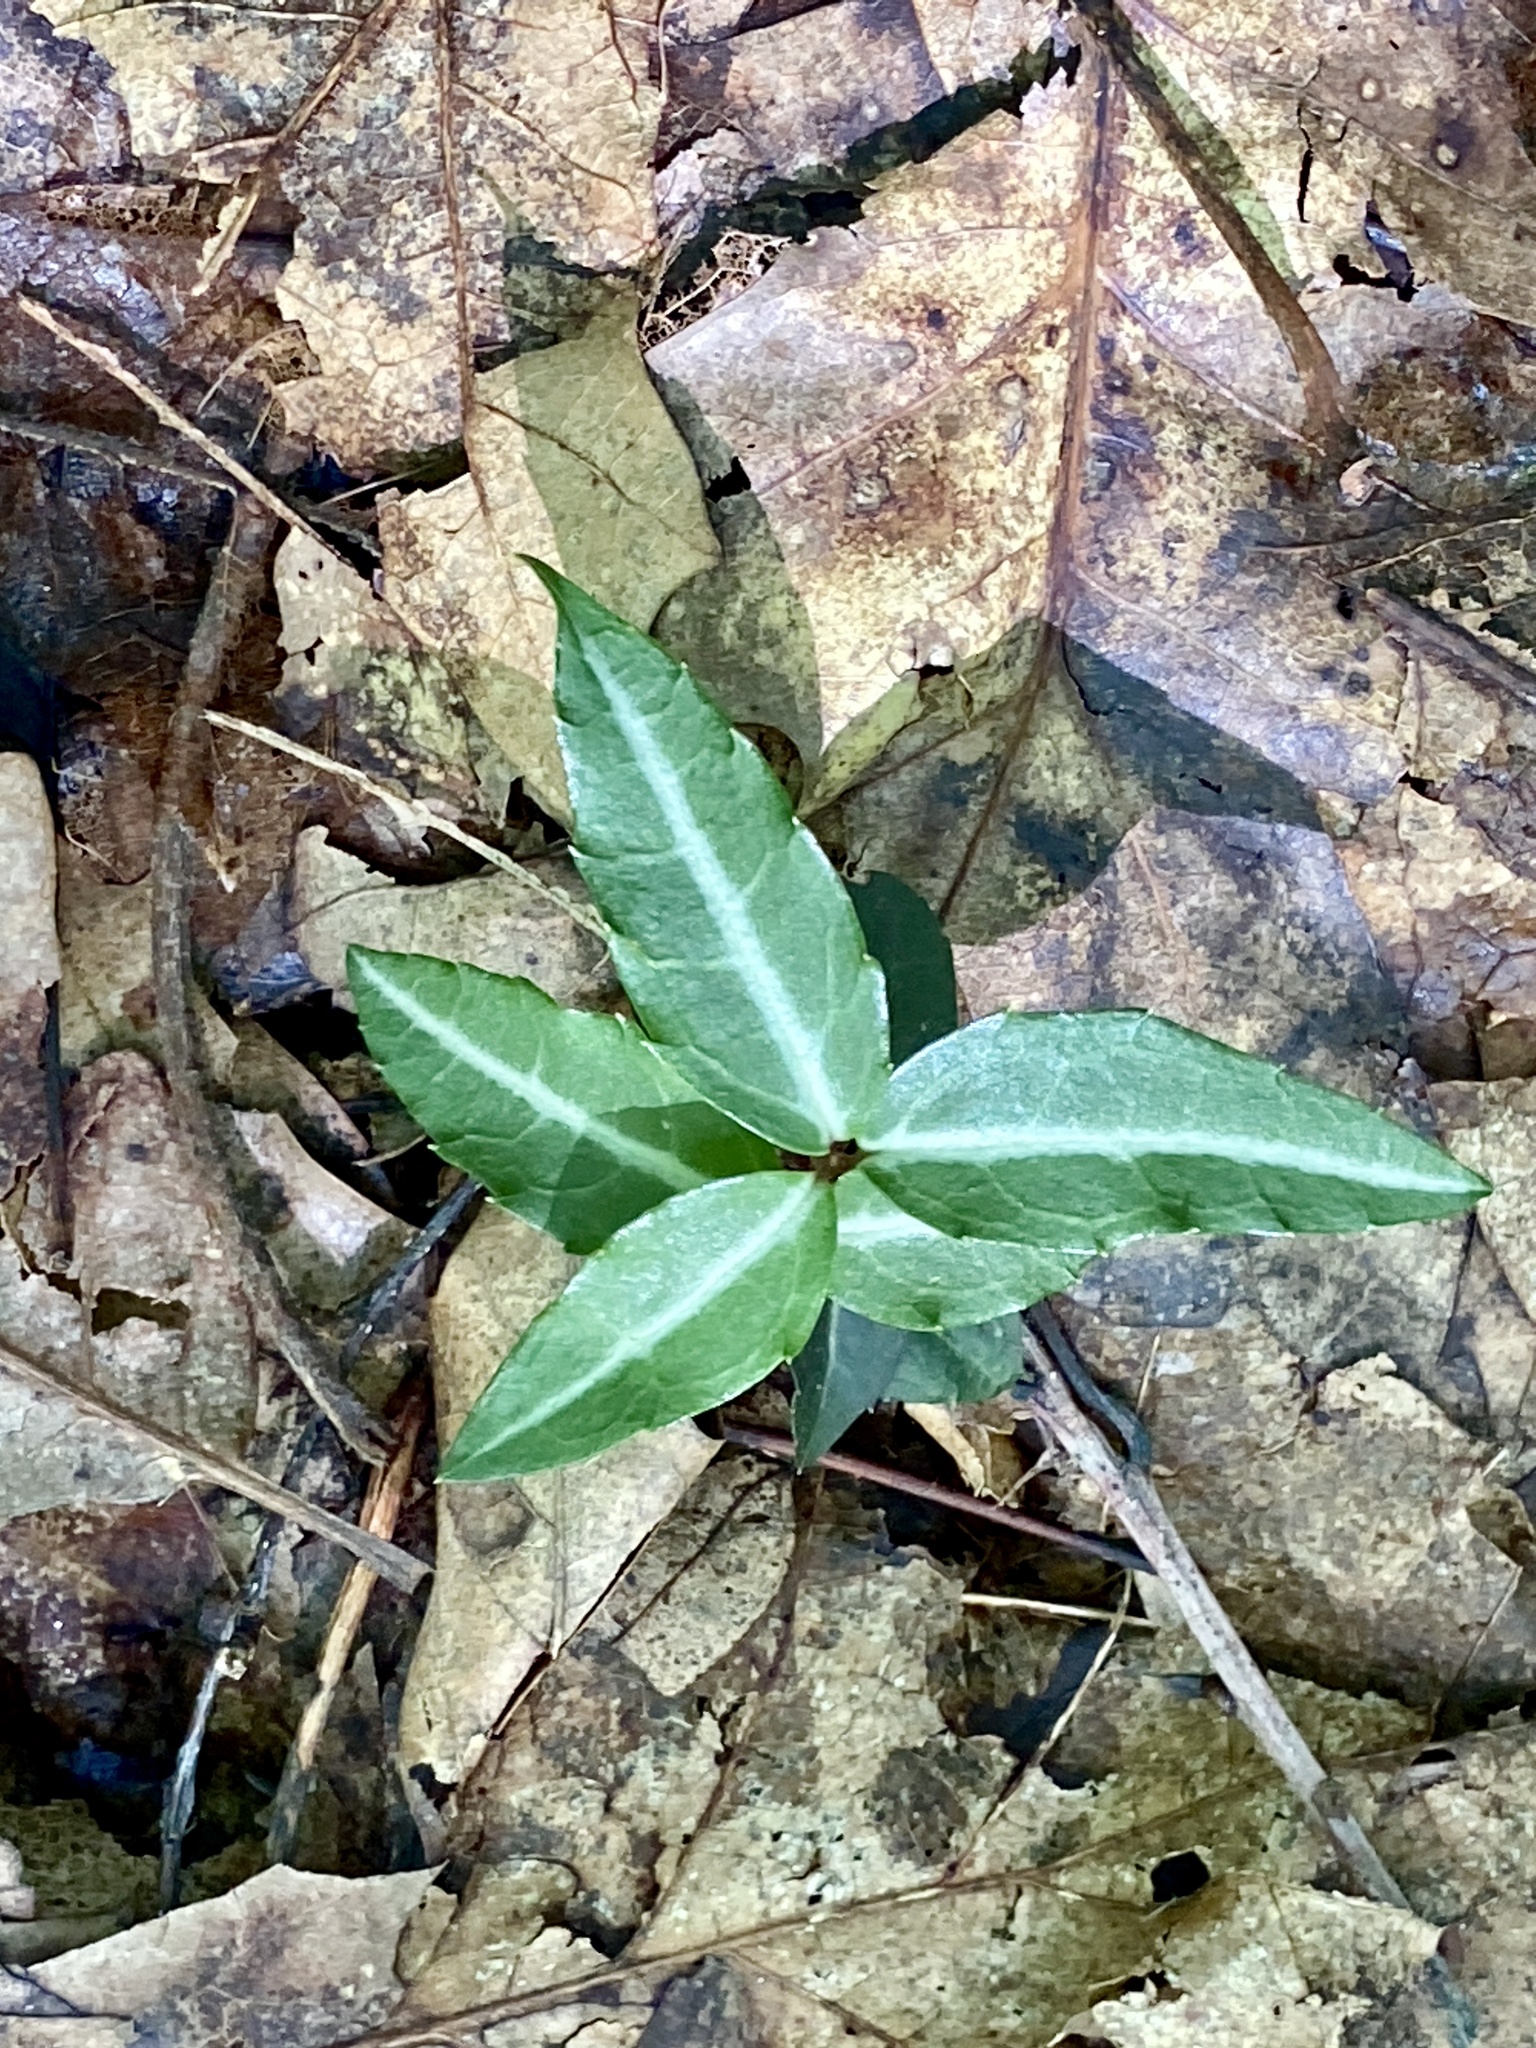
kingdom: Plantae
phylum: Tracheophyta
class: Magnoliopsida
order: Ericales
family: Ericaceae
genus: Chimaphila
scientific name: Chimaphila maculata
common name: Spotted pipsissewa
